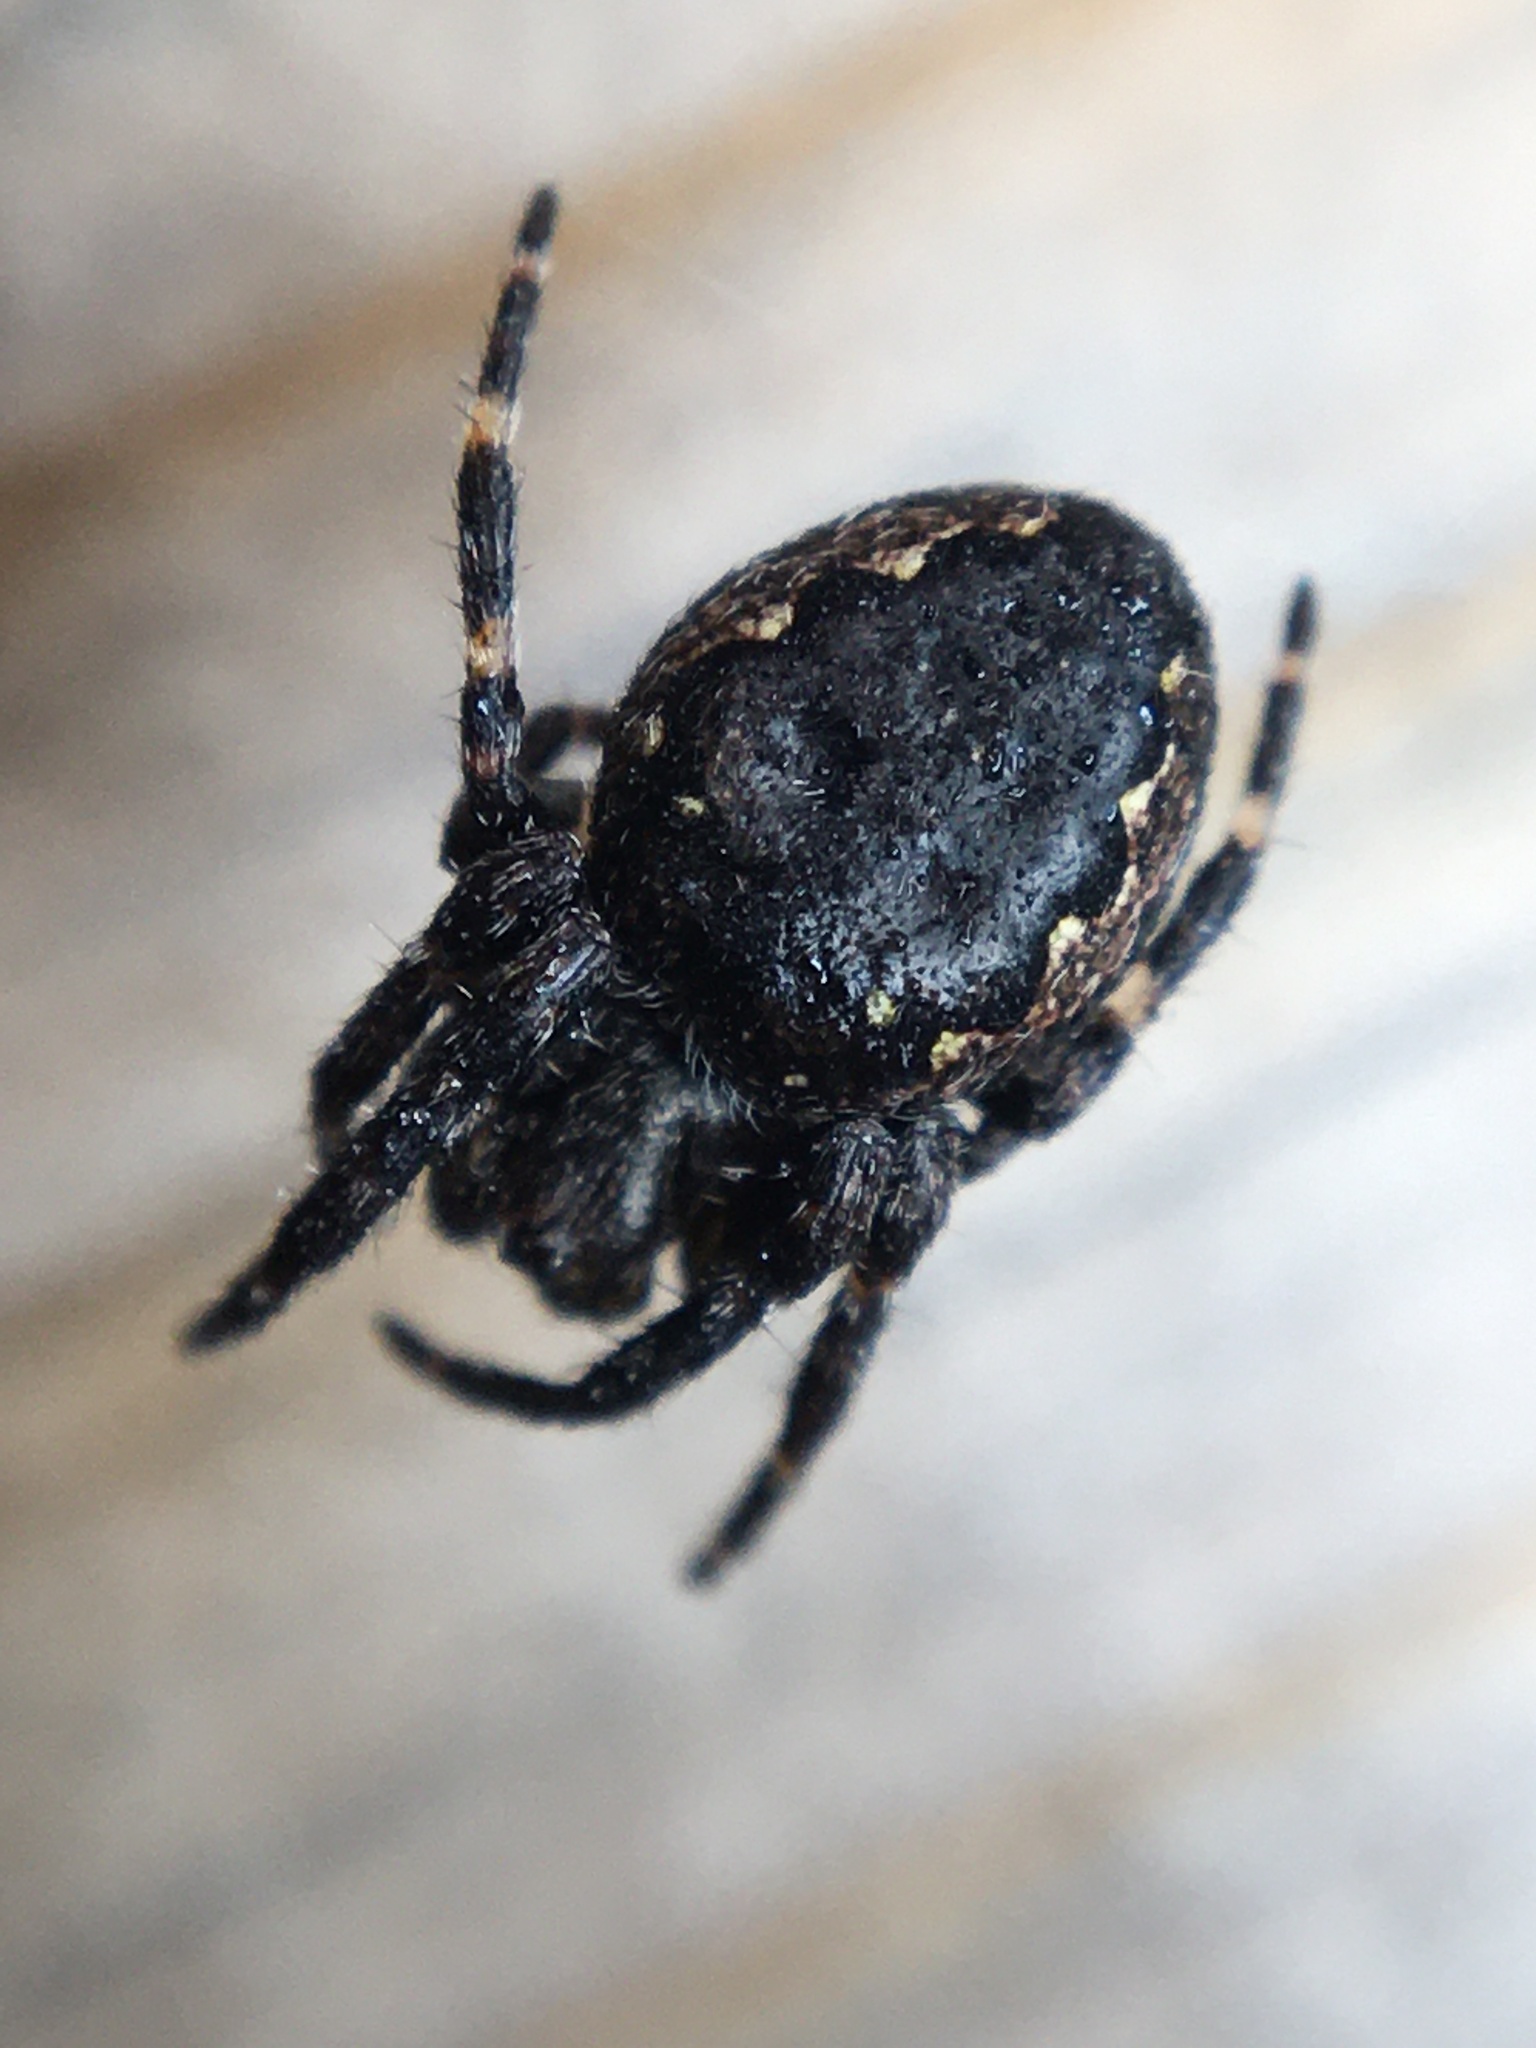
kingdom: Animalia
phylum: Arthropoda
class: Arachnida
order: Araneae
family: Araneidae
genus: Nuctenea
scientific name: Nuctenea umbratica
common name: Toad spider
